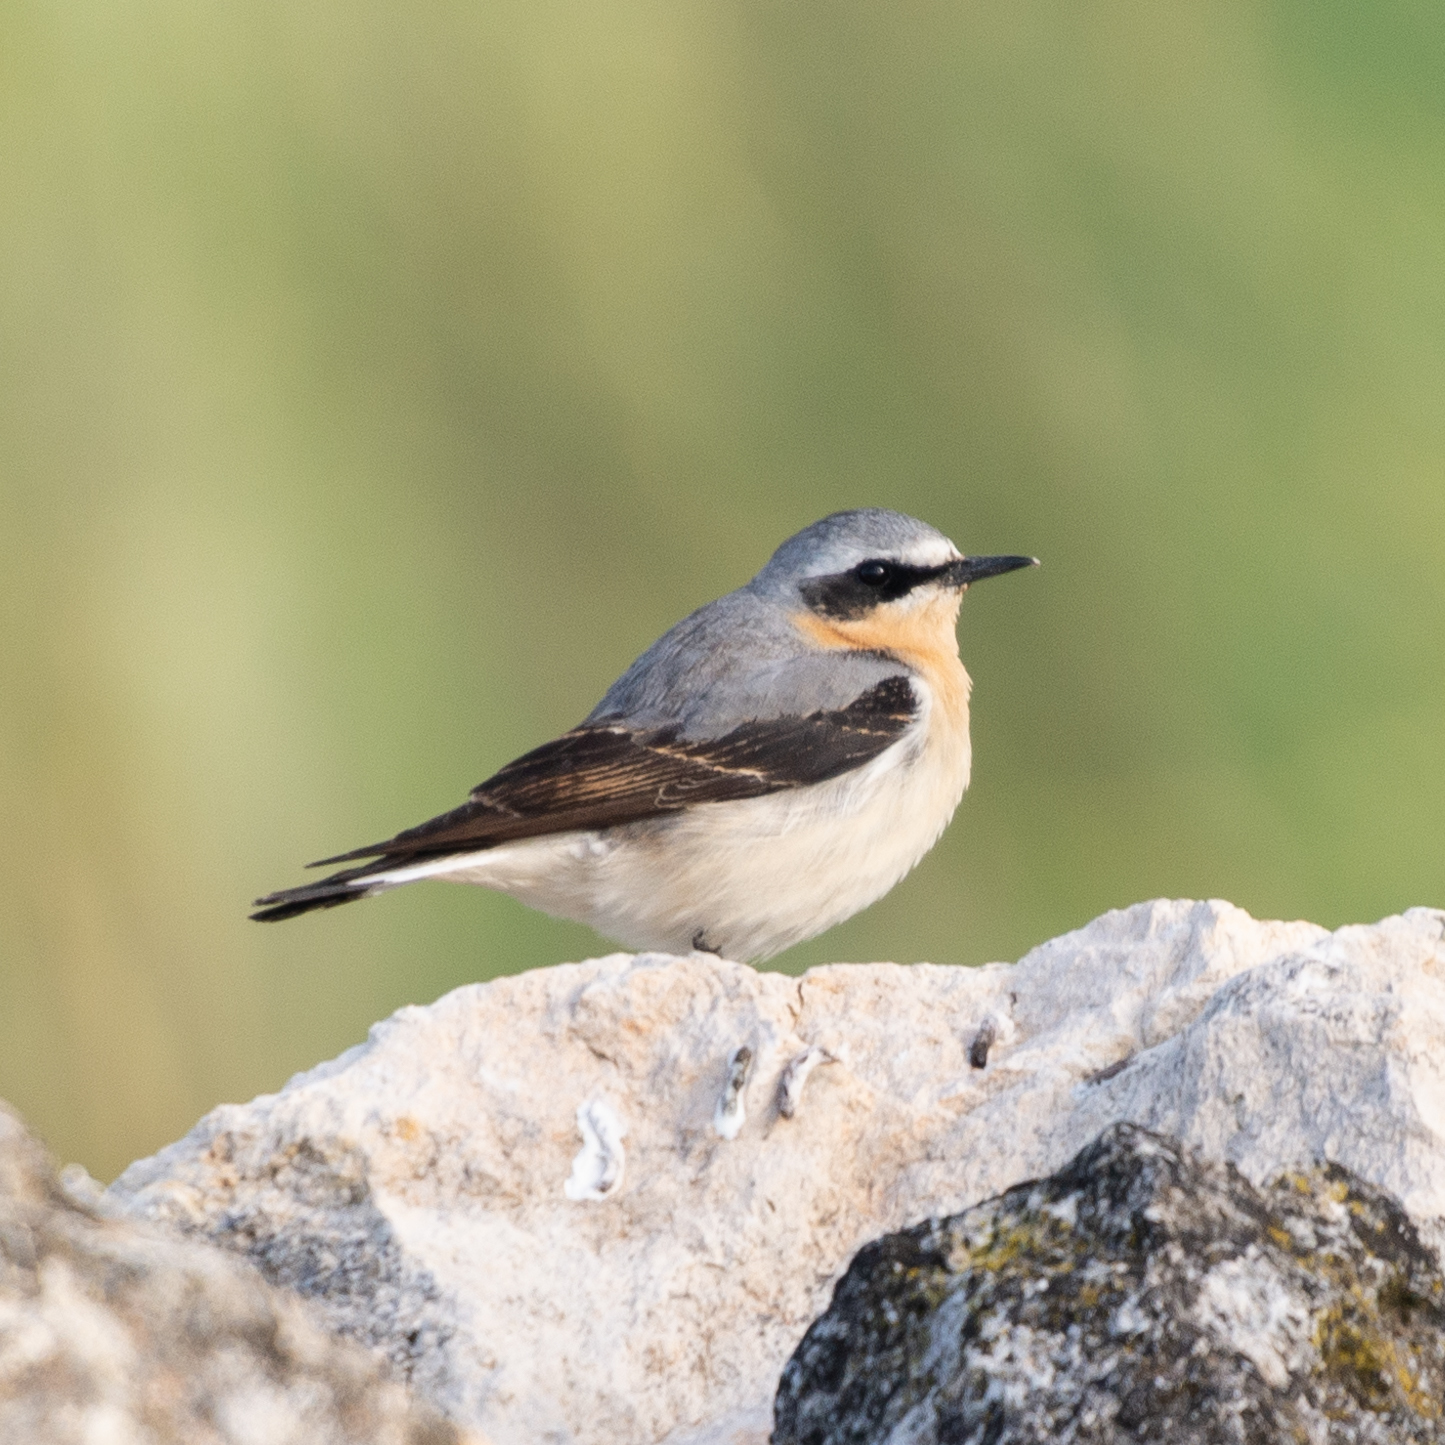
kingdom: Animalia
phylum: Chordata
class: Aves
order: Passeriformes
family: Muscicapidae
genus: Oenanthe
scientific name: Oenanthe oenanthe
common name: Northern wheatear
